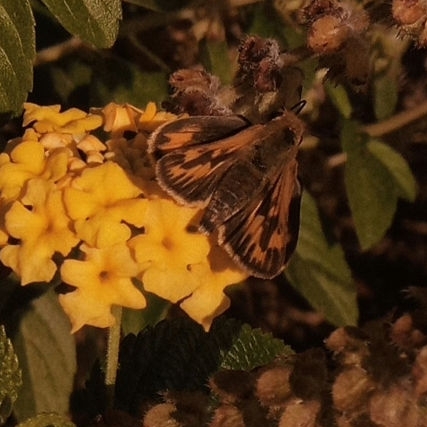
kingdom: Animalia
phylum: Arthropoda
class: Insecta
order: Lepidoptera
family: Hesperiidae
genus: Hylephila
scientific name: Hylephila phyleus
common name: Fiery skipper
